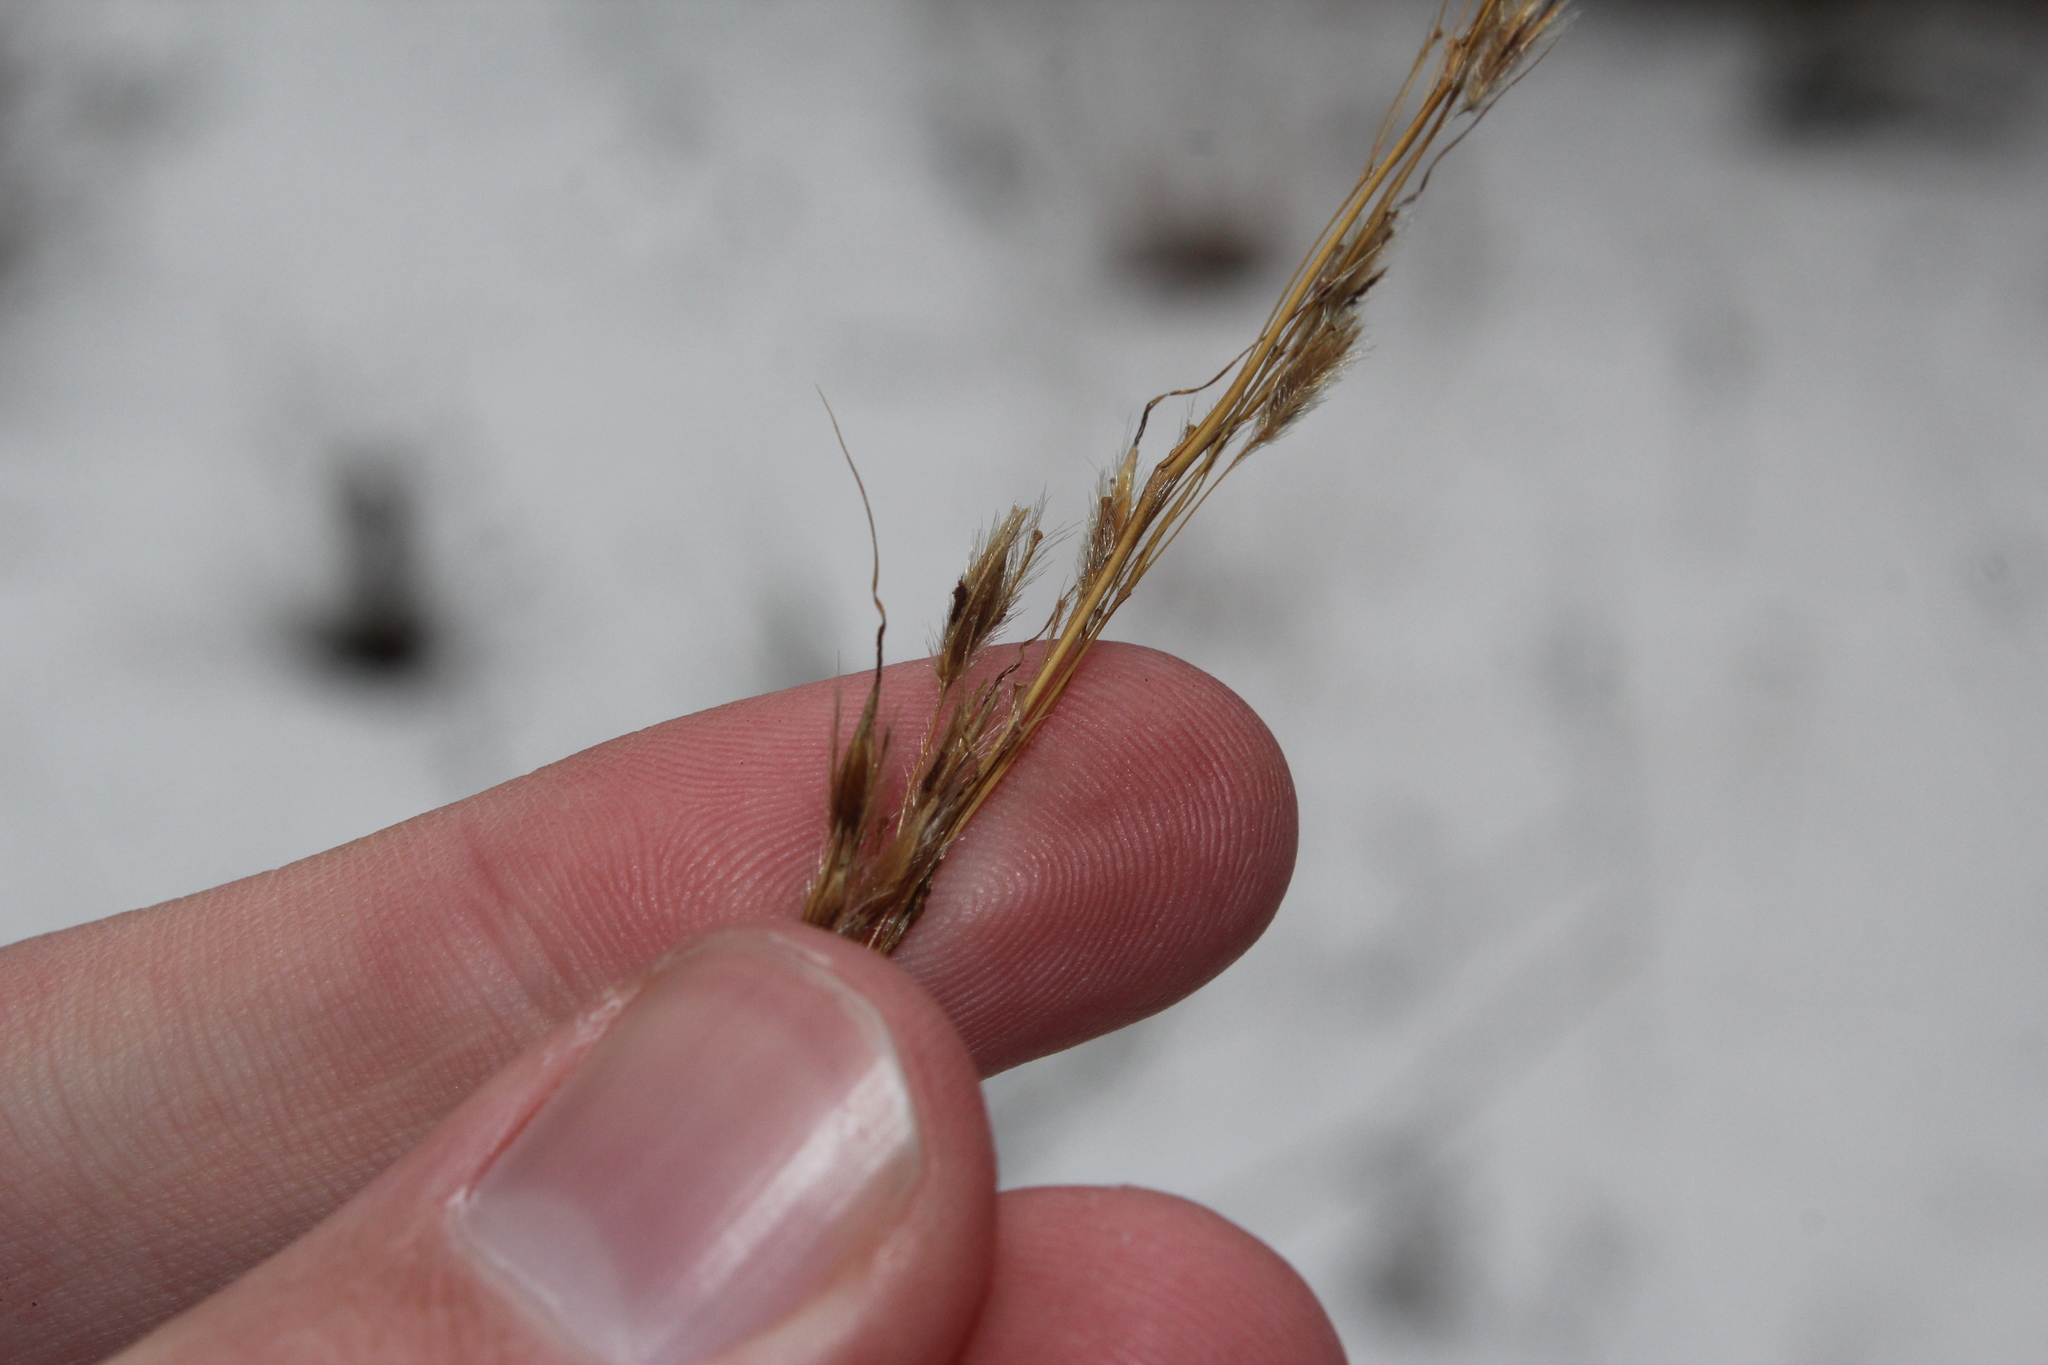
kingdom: Plantae
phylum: Tracheophyta
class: Liliopsida
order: Poales
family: Poaceae
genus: Sorghastrum
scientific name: Sorghastrum nutans
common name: Indian grass
